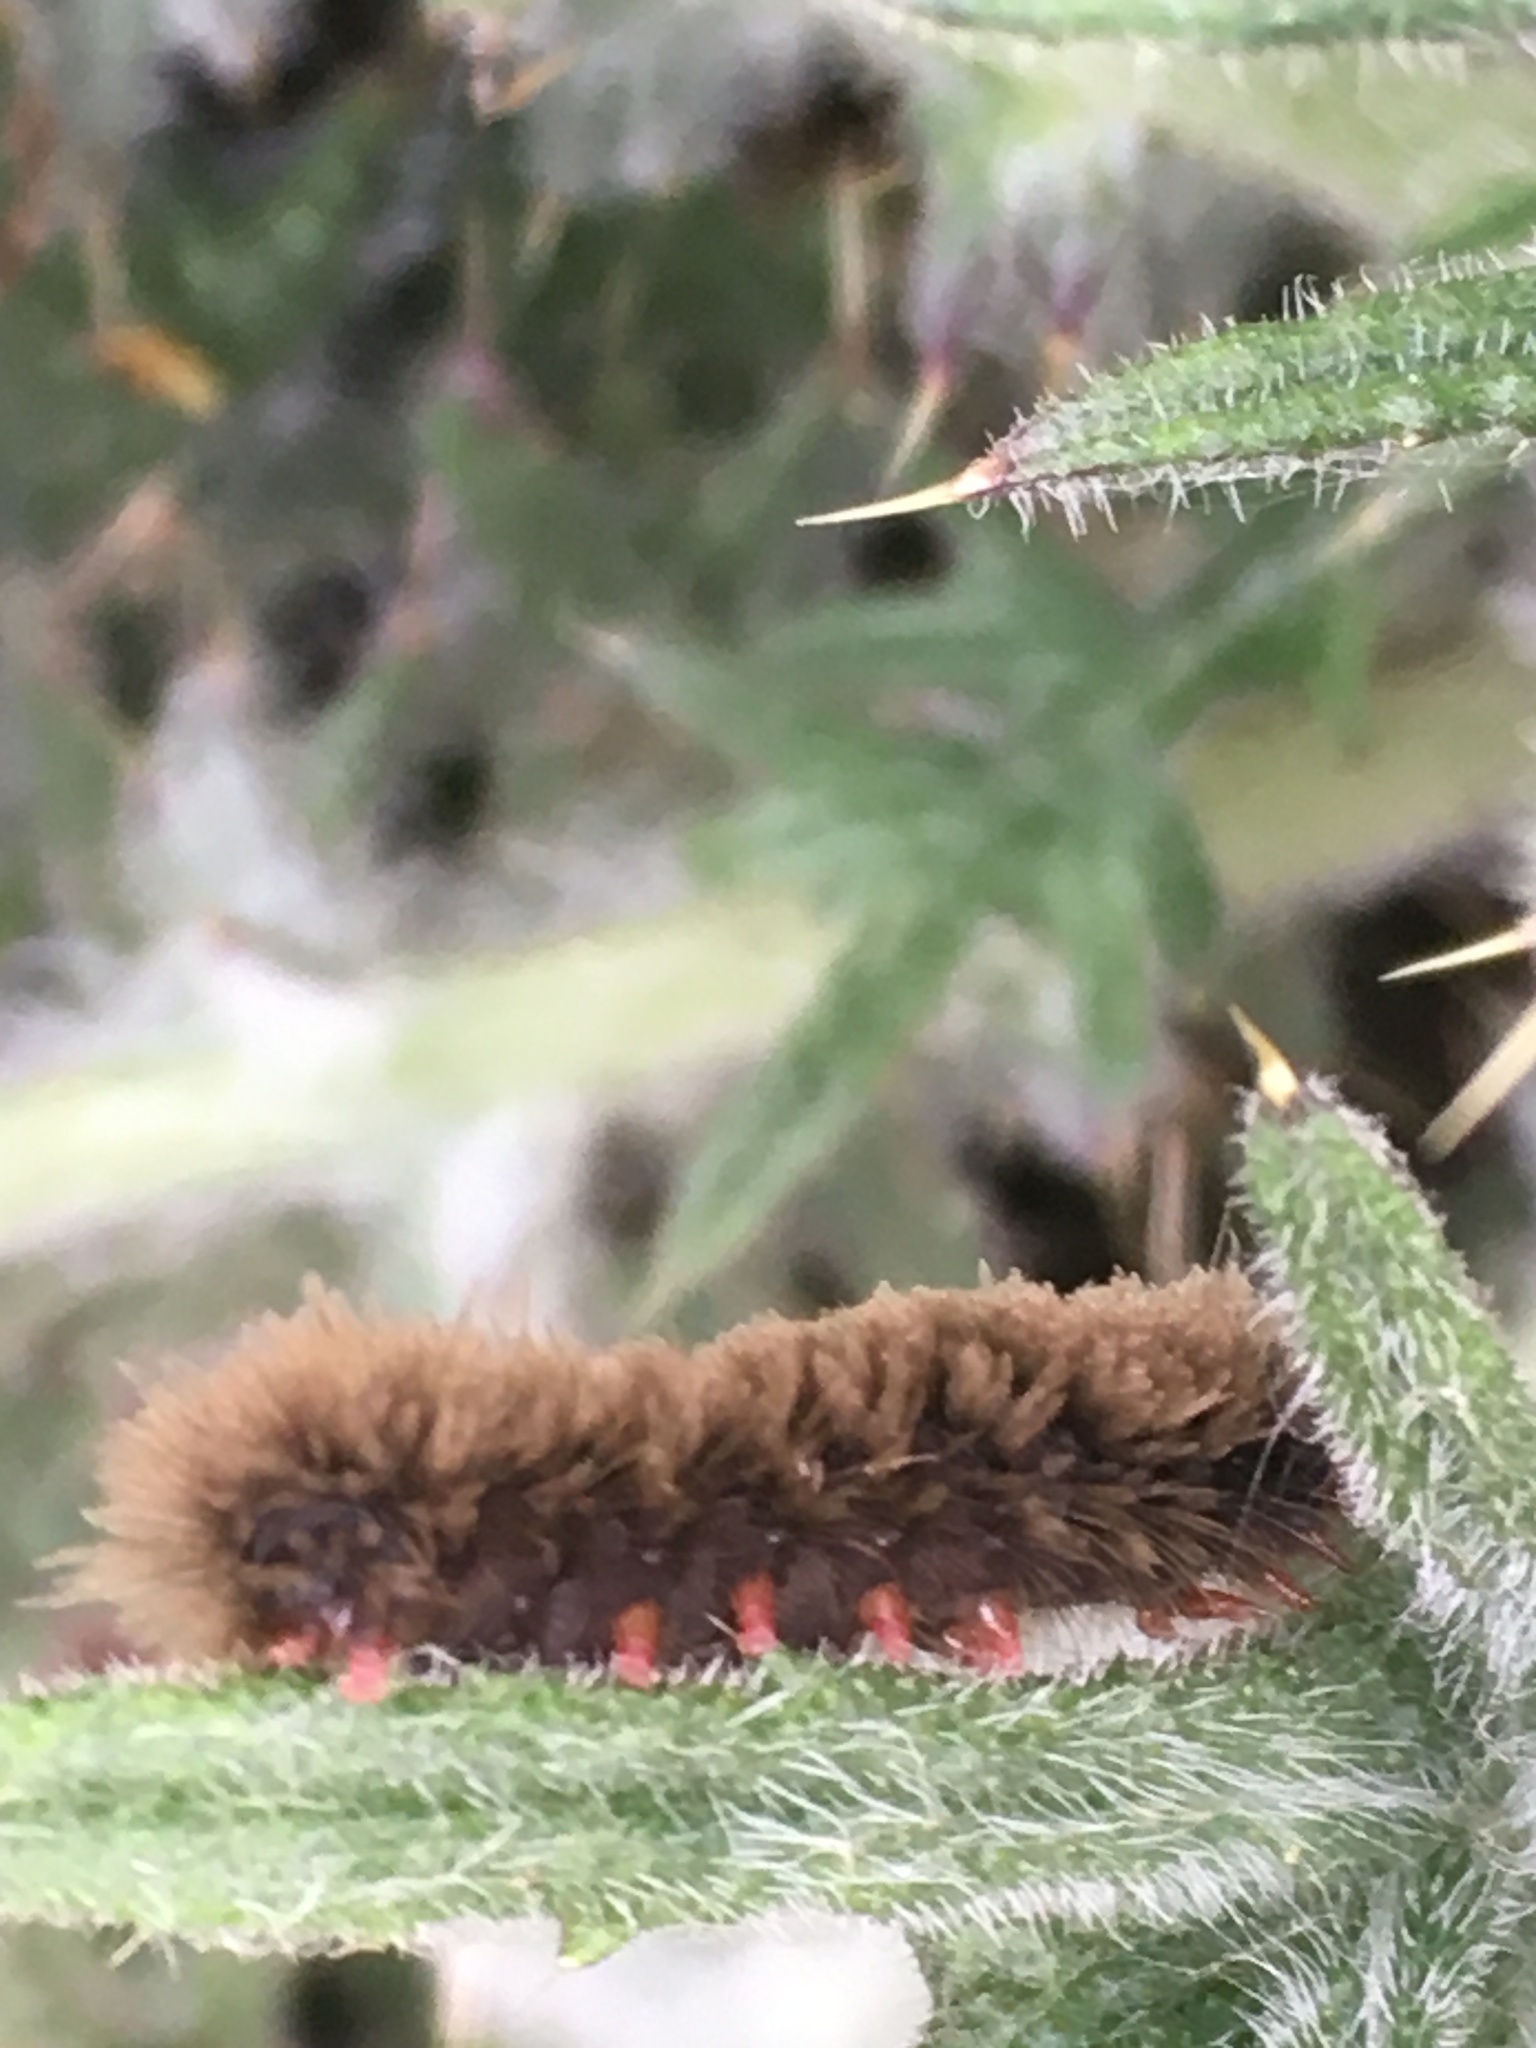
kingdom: Animalia
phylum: Arthropoda
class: Insecta
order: Lepidoptera
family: Erebidae
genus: Amata
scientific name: Amata phegea
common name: Nine-spotted
